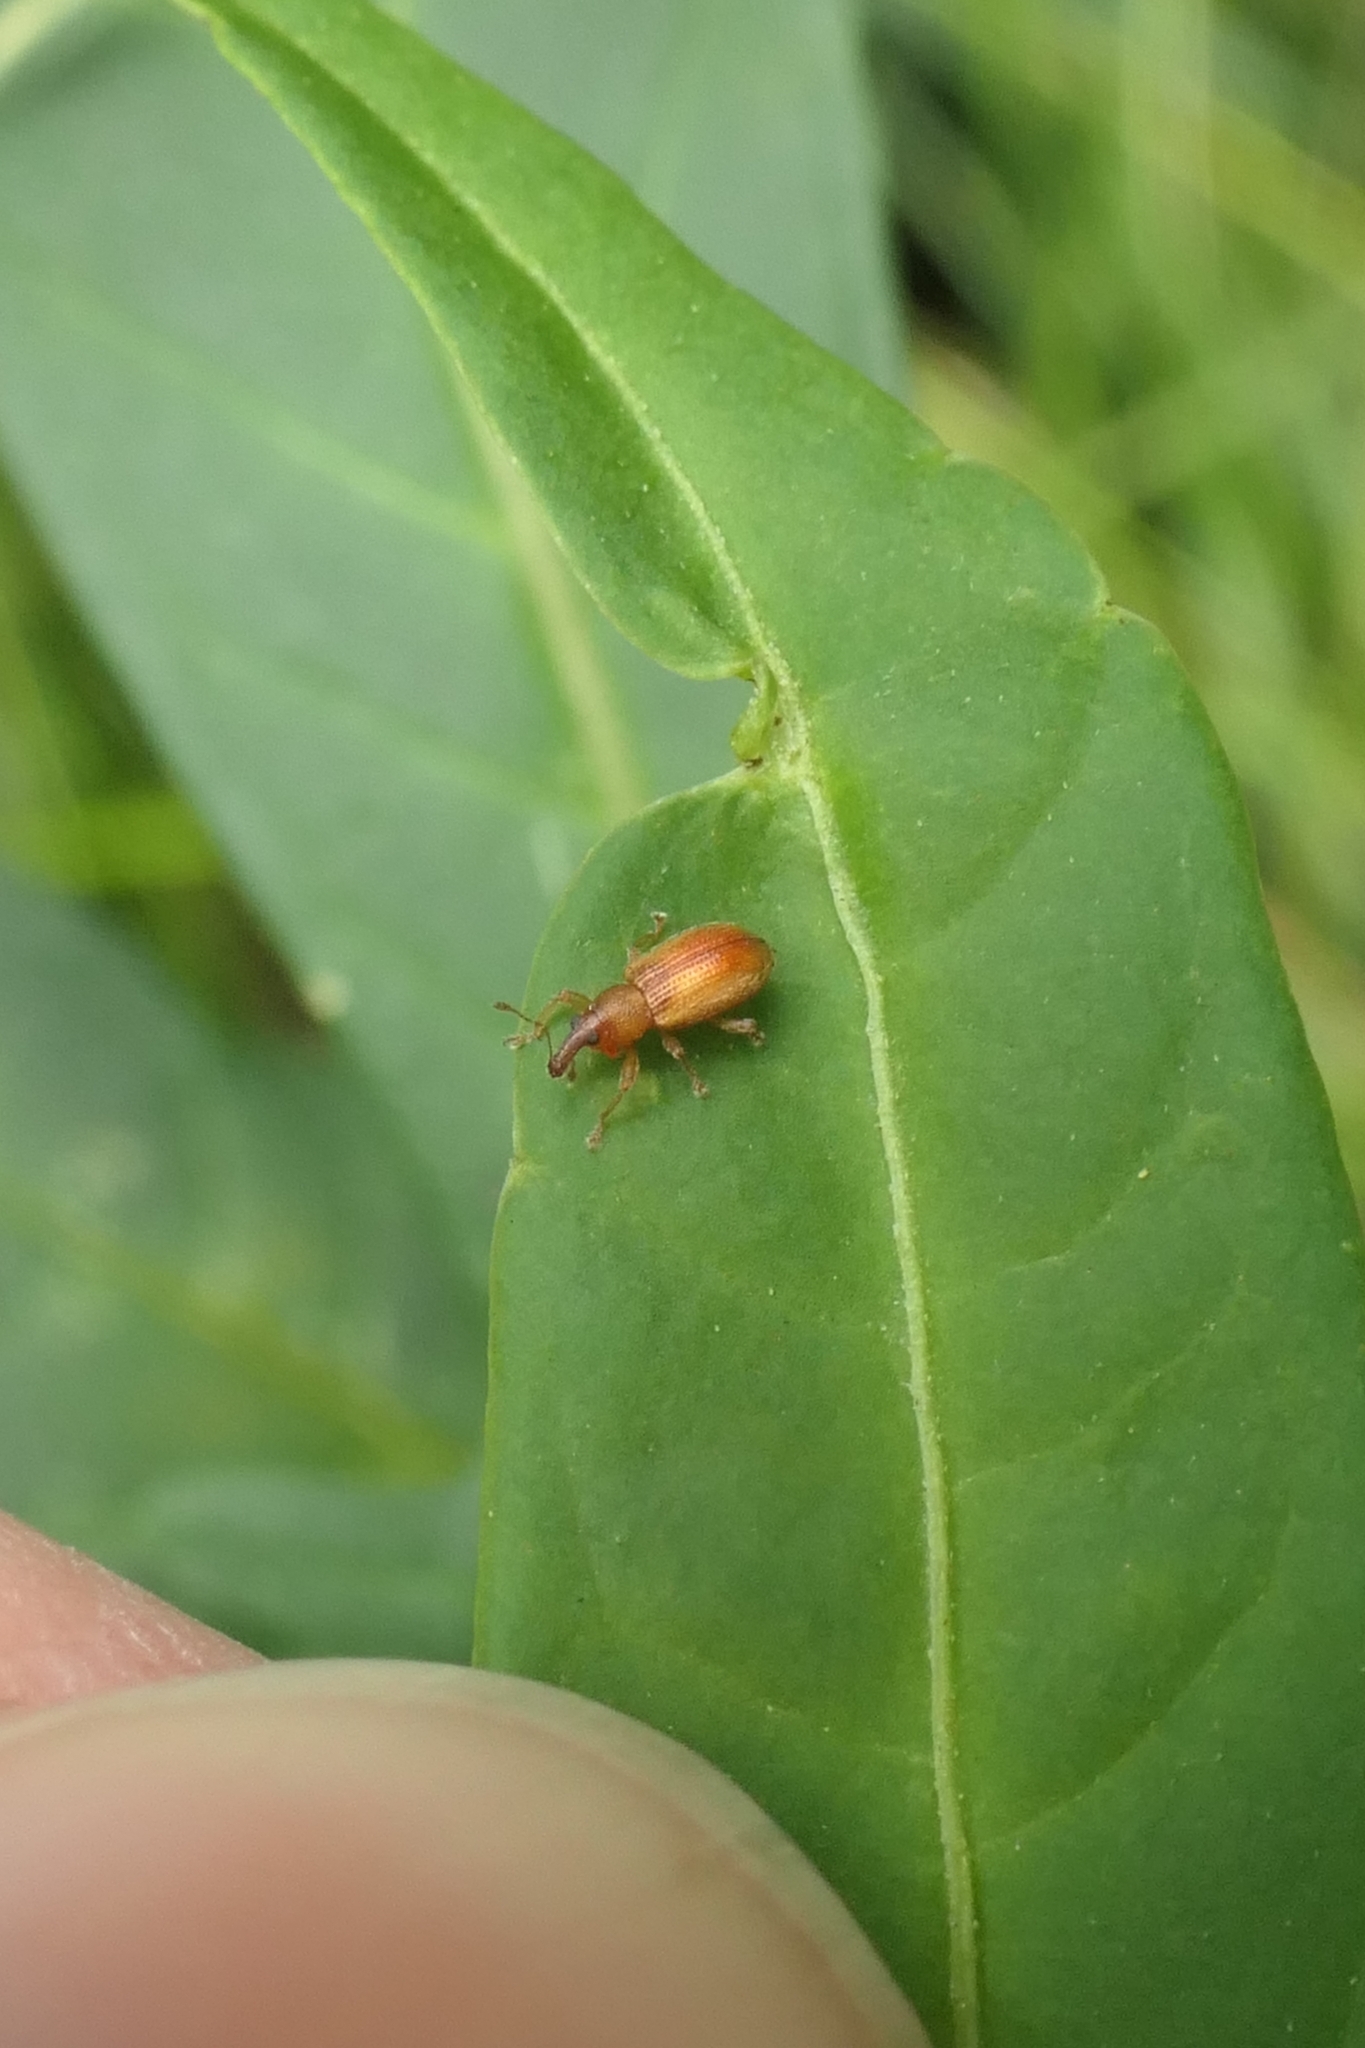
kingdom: Animalia
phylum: Arthropoda
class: Insecta
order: Coleoptera
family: Curculionidae
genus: Neomycta
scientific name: Neomycta pulicaris
